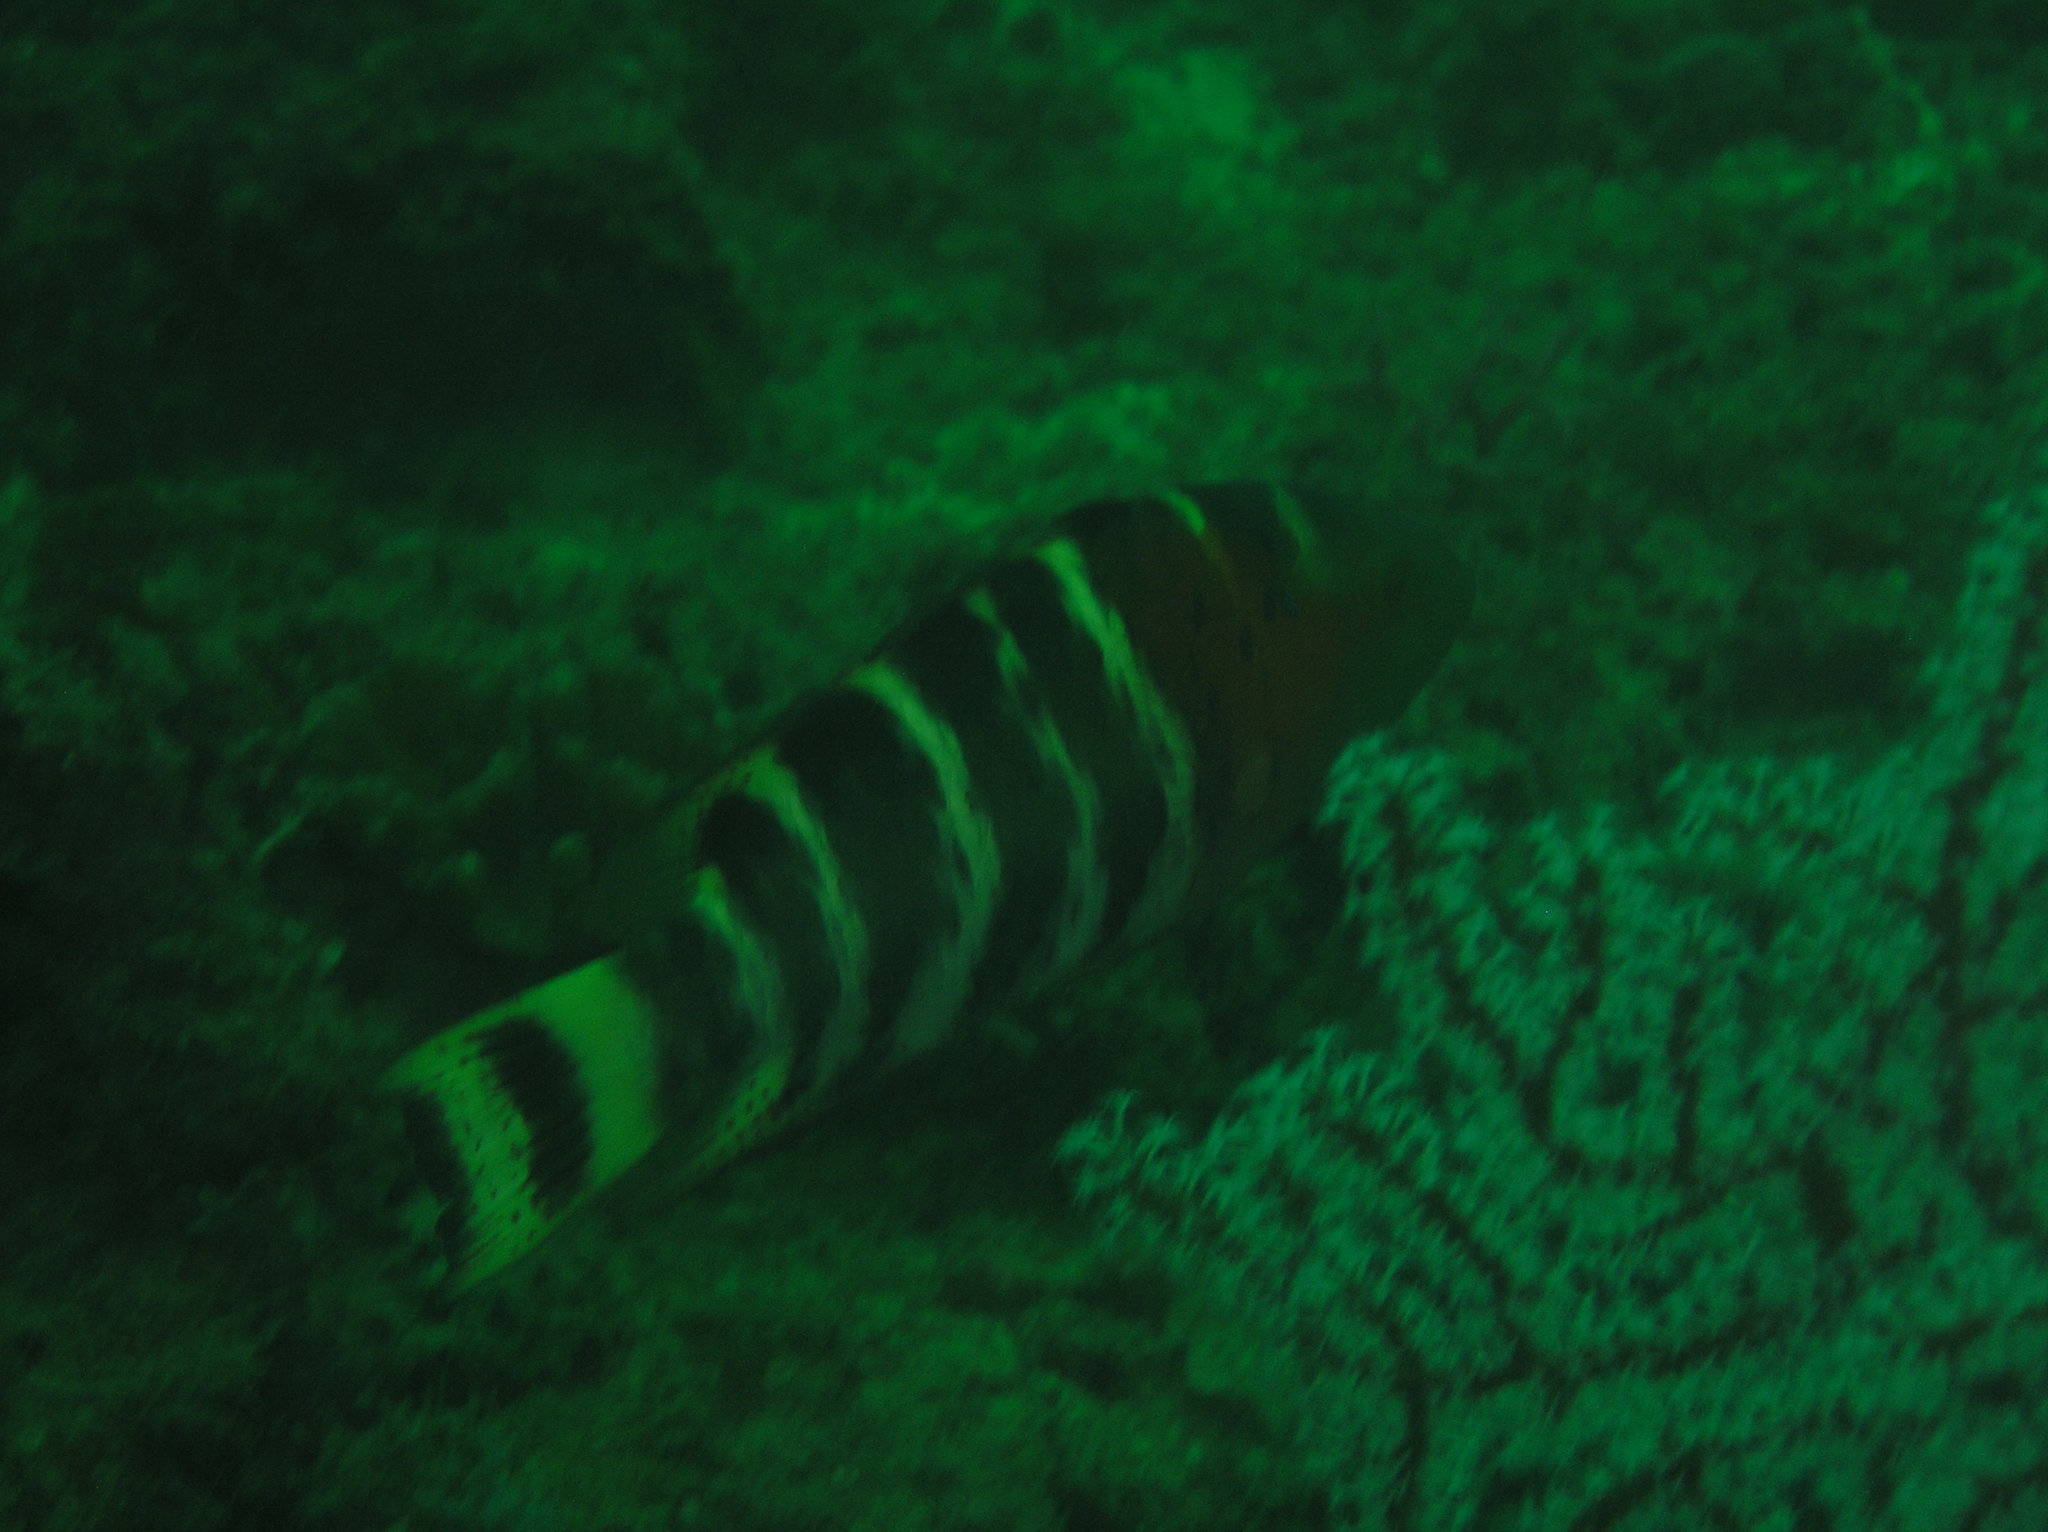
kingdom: Animalia
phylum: Chordata
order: Perciformes
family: Labridae
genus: Cheilinus
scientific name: Cheilinus fasciatus
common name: Red-breasted wrasse
